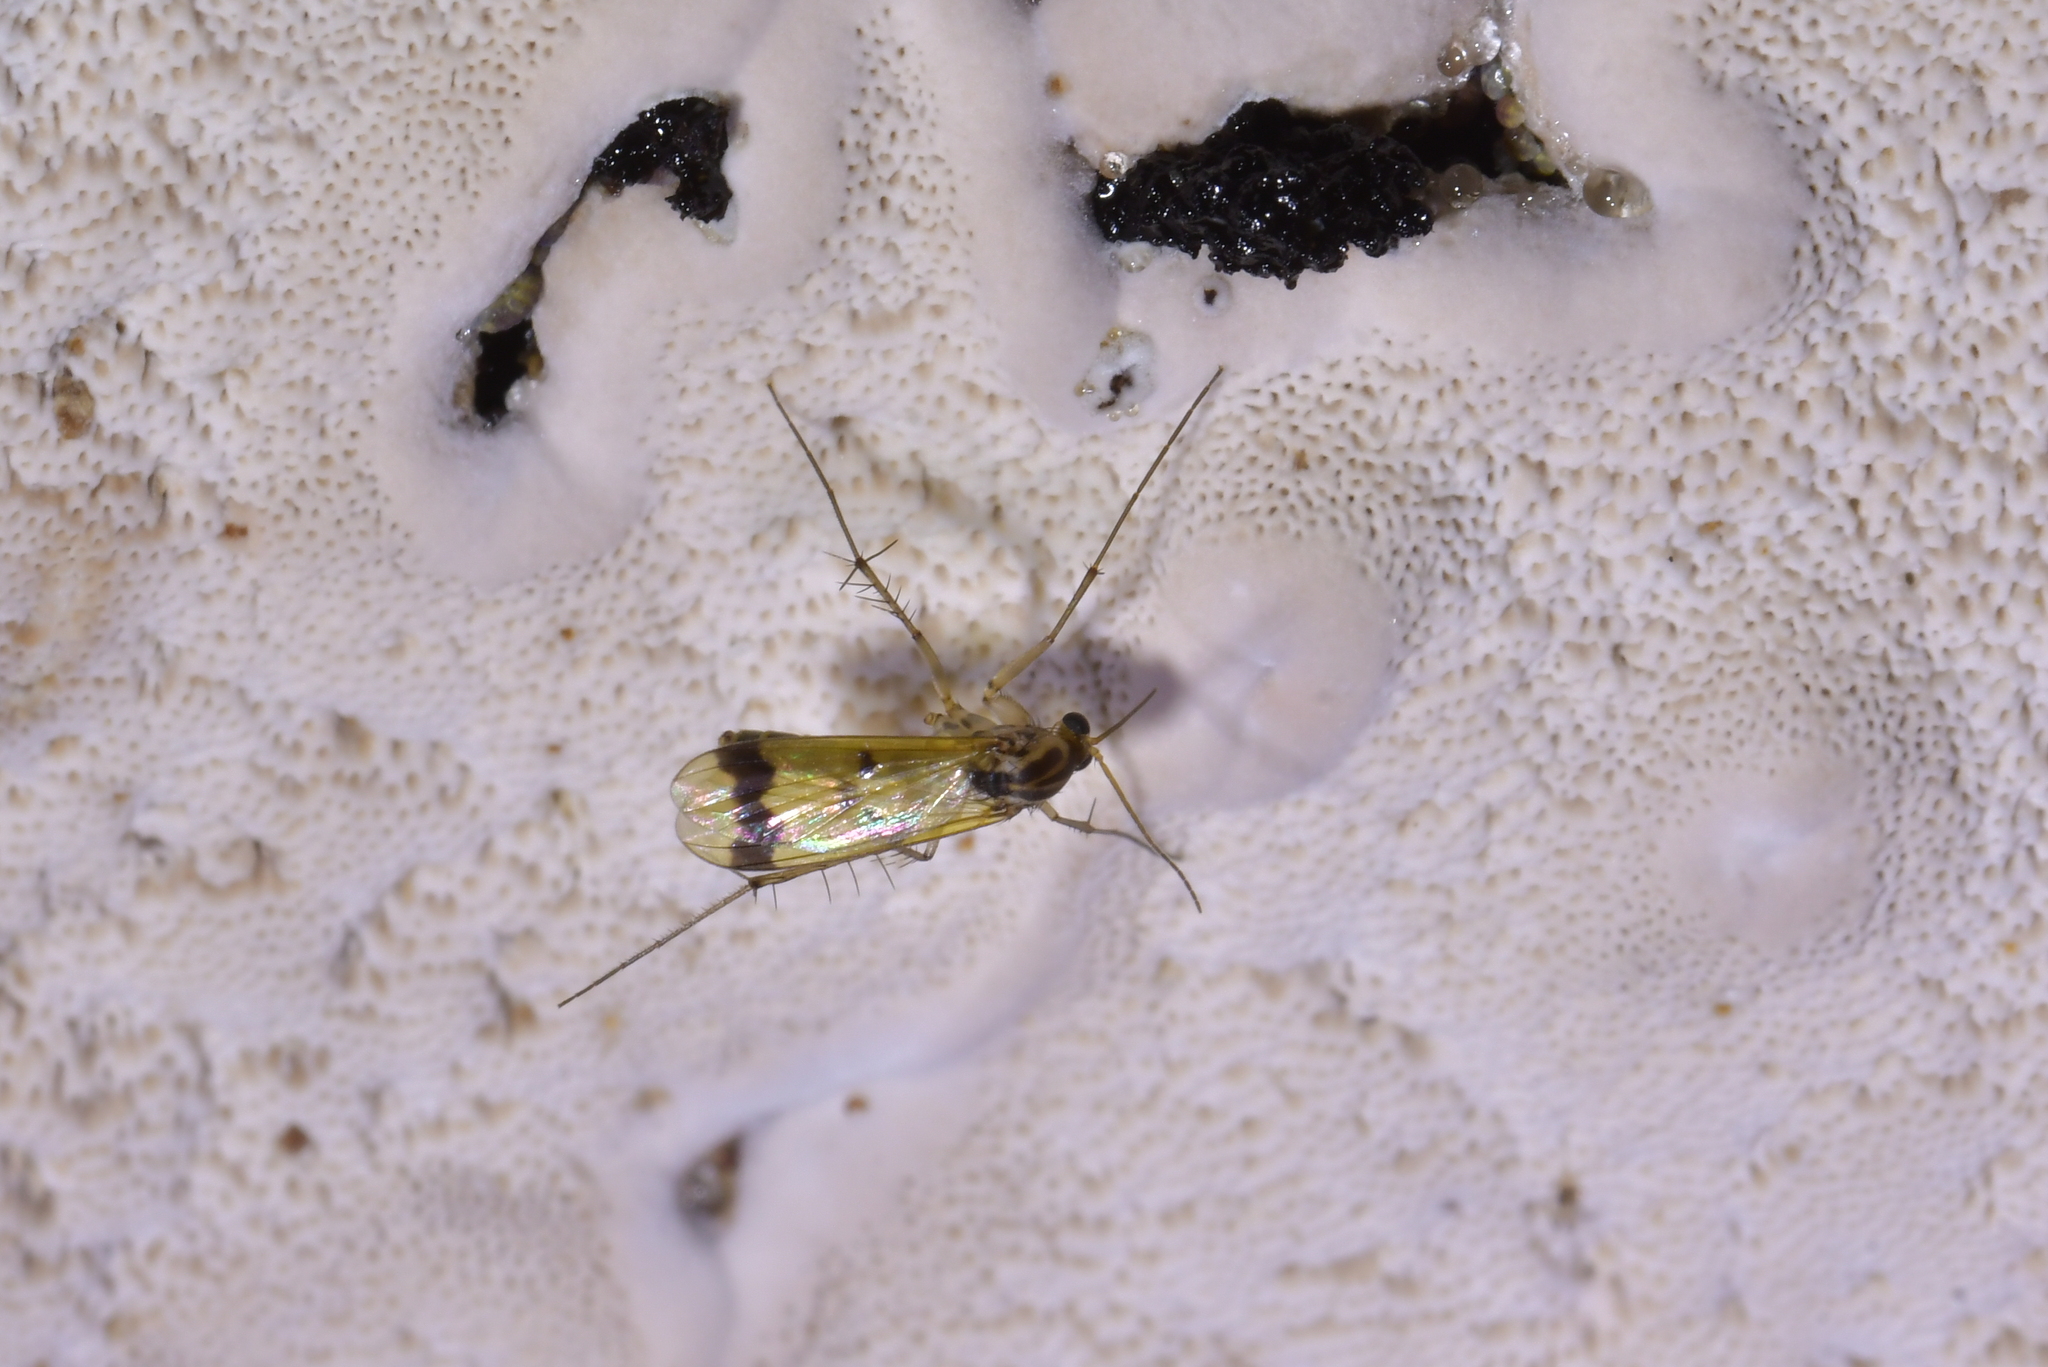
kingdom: Animalia
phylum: Arthropoda
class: Insecta
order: Diptera
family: Mycetophilidae
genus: Mycetophila
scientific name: Mycetophila latifascia
